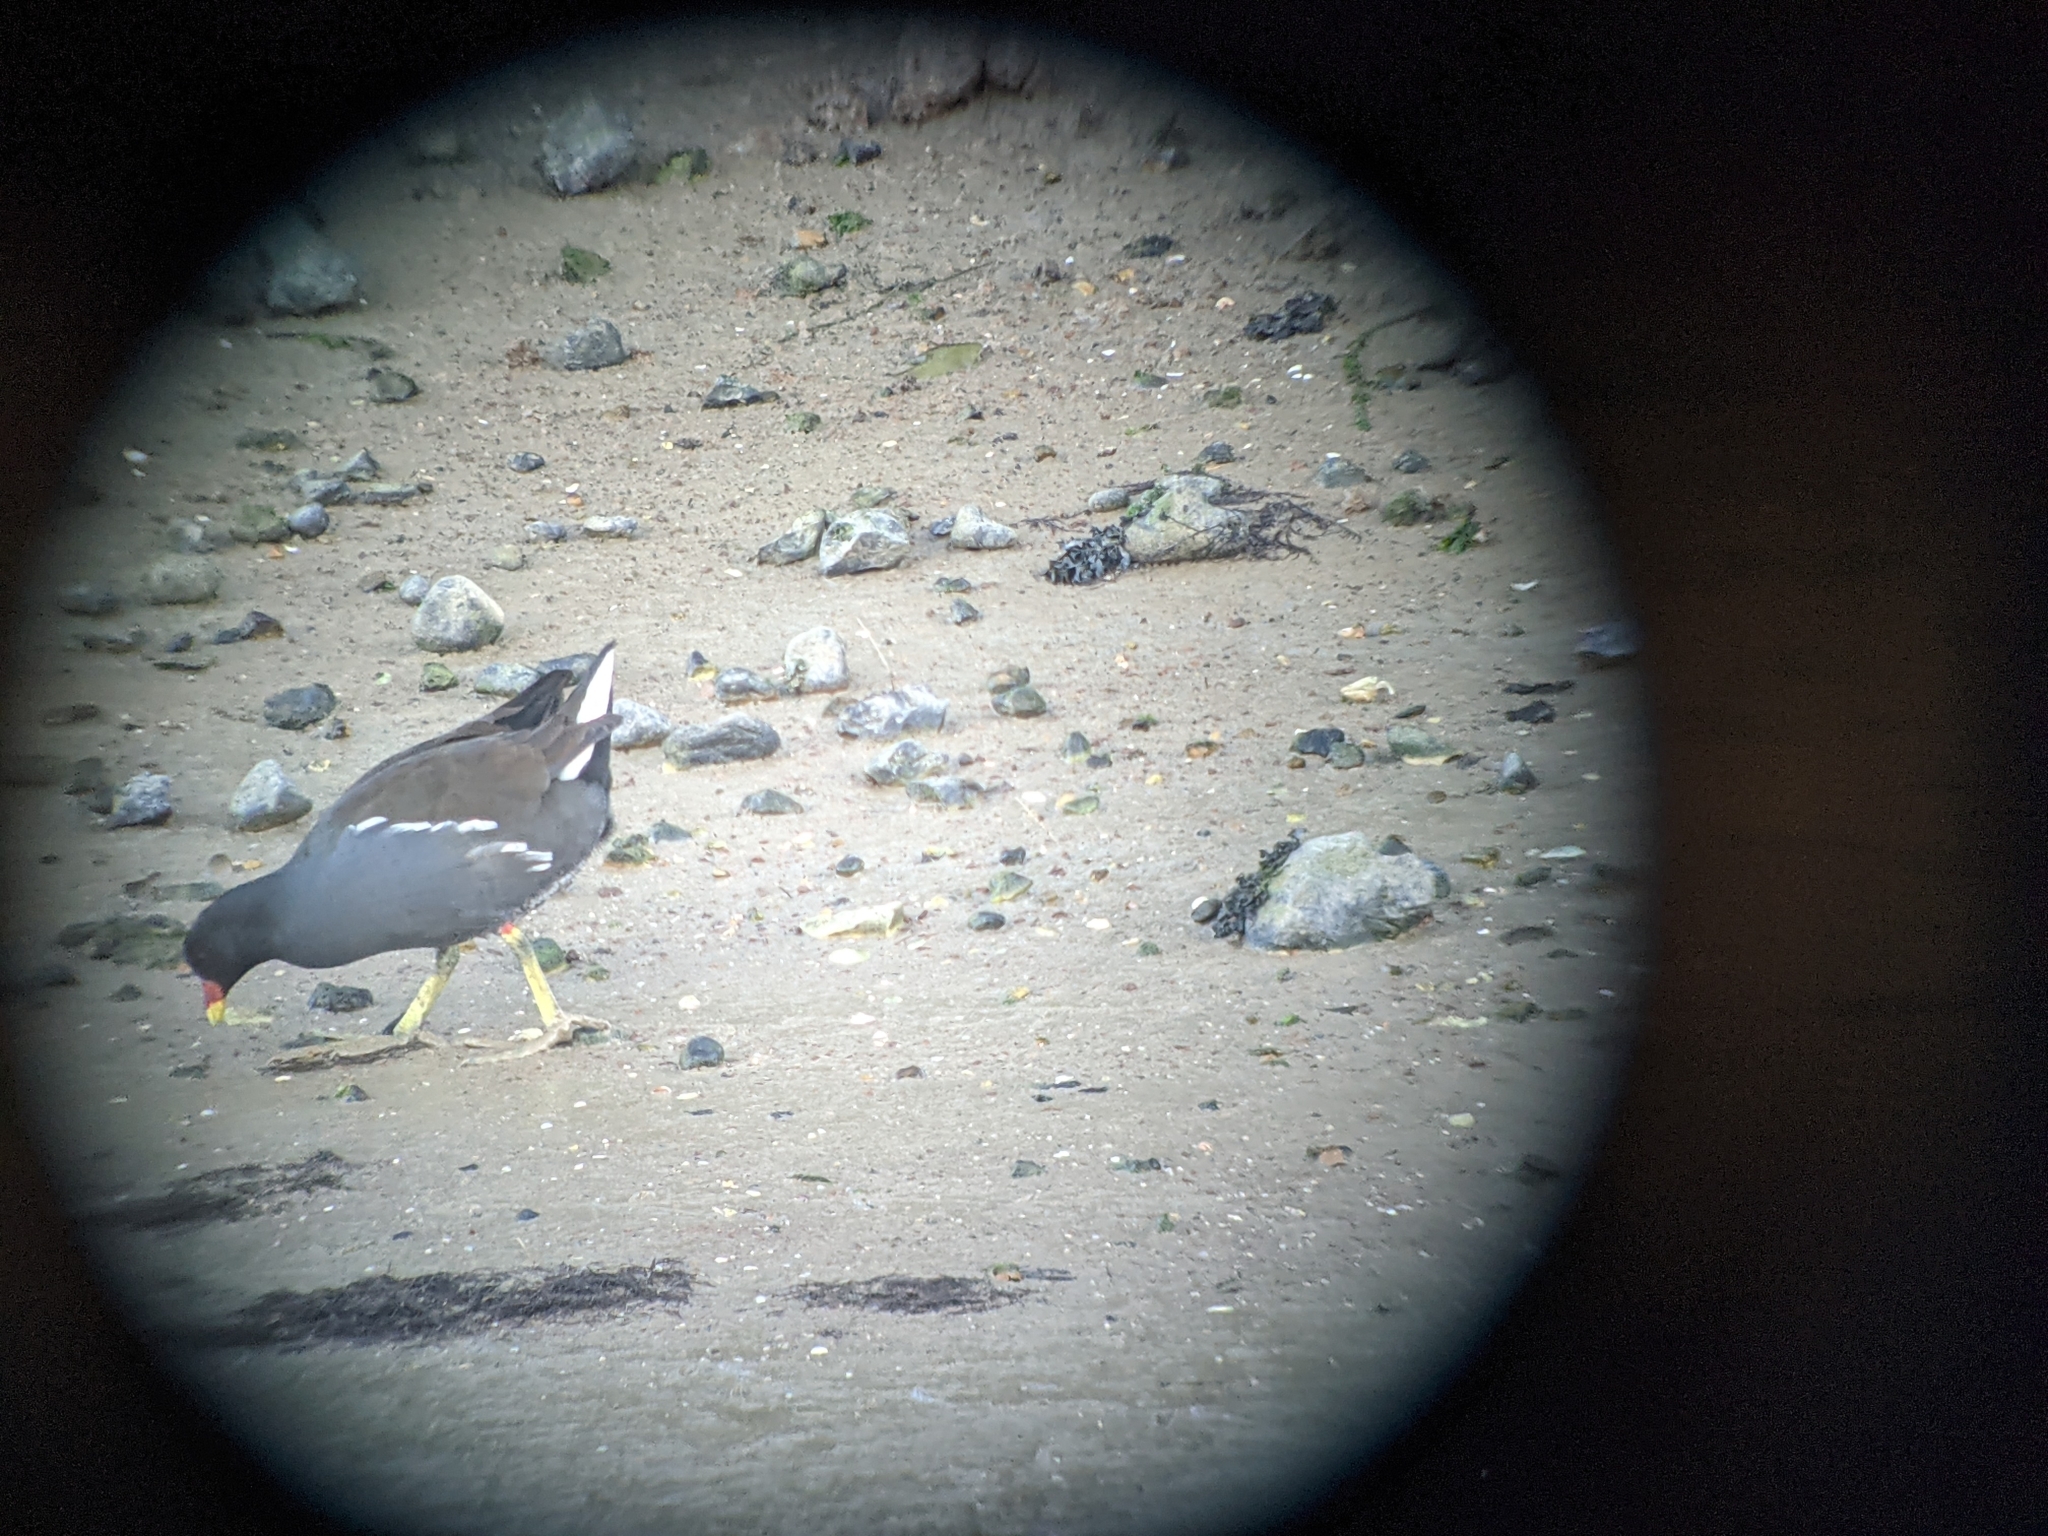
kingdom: Animalia
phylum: Chordata
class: Aves
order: Gruiformes
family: Rallidae
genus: Gallinula
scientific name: Gallinula chloropus
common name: Common moorhen
